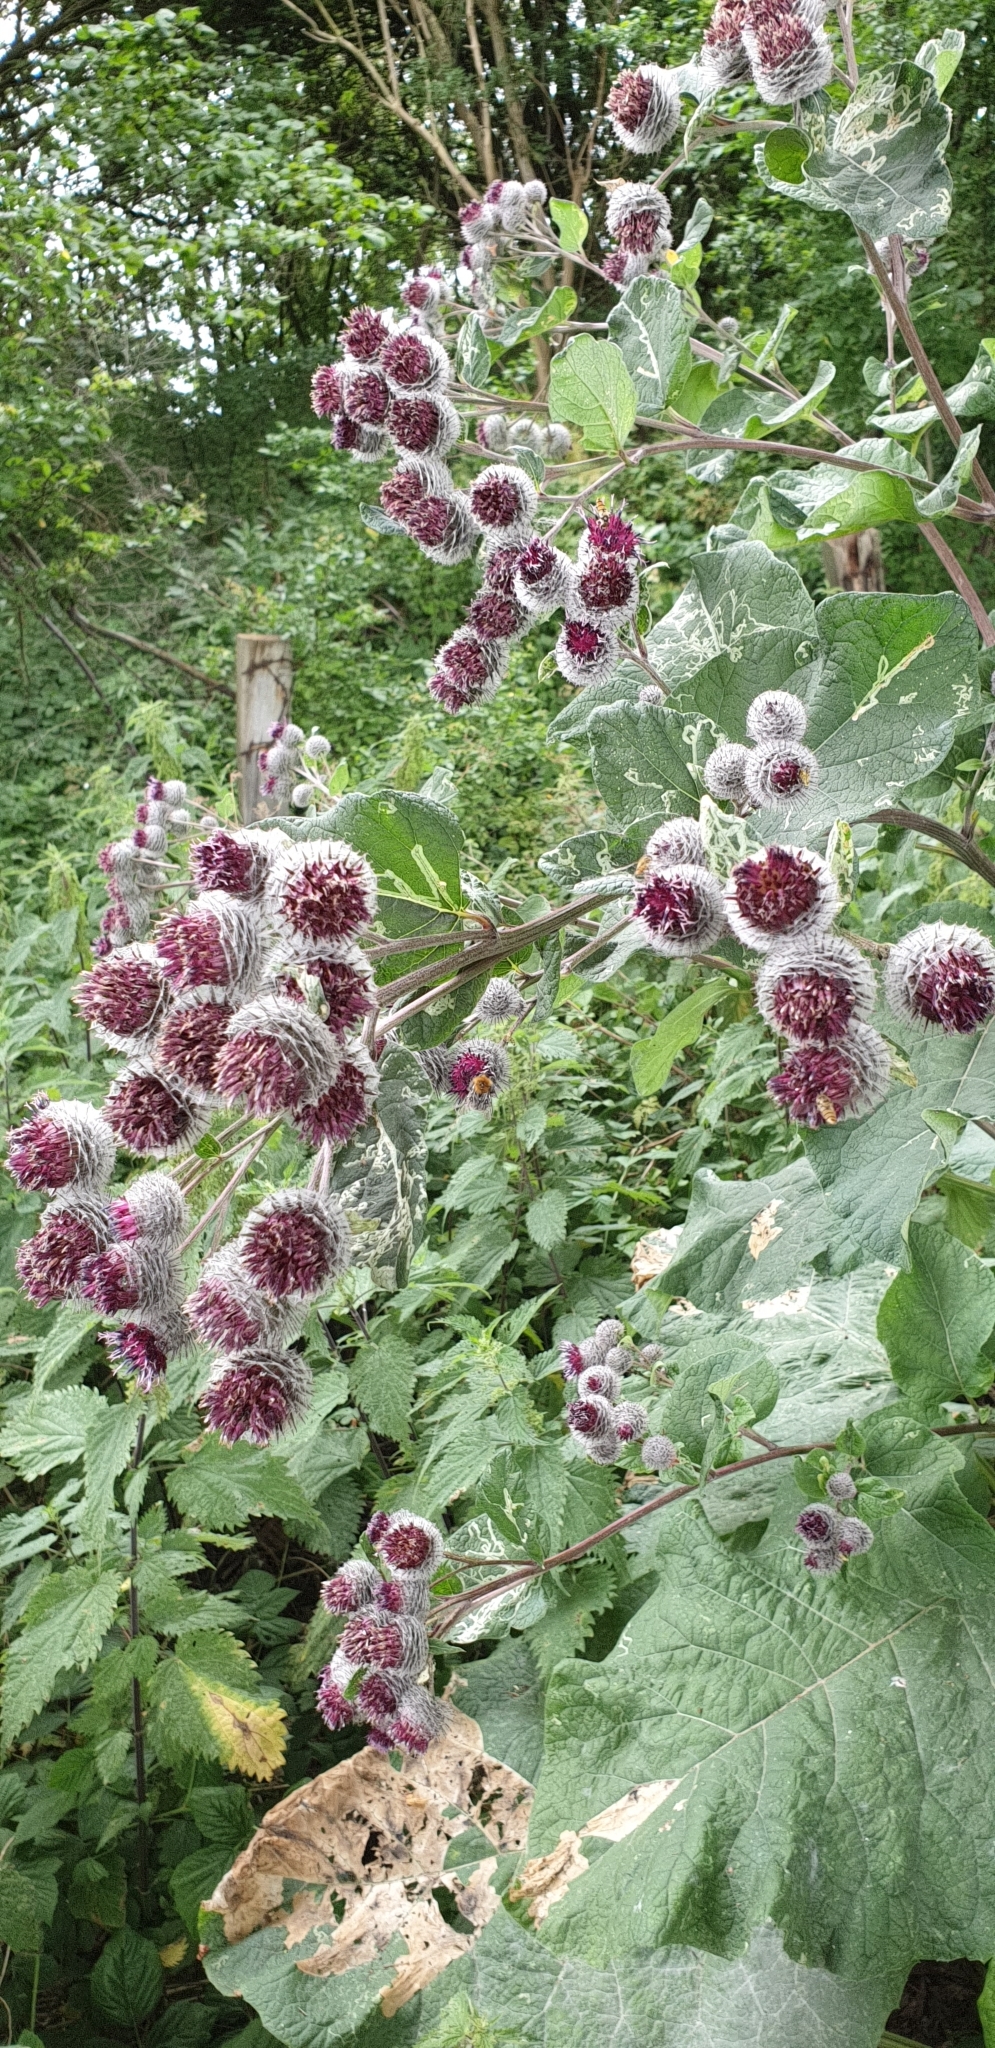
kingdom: Plantae
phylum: Tracheophyta
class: Magnoliopsida
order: Asterales
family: Asteraceae
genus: Arctium
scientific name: Arctium tomentosum
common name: Woolly burdock
